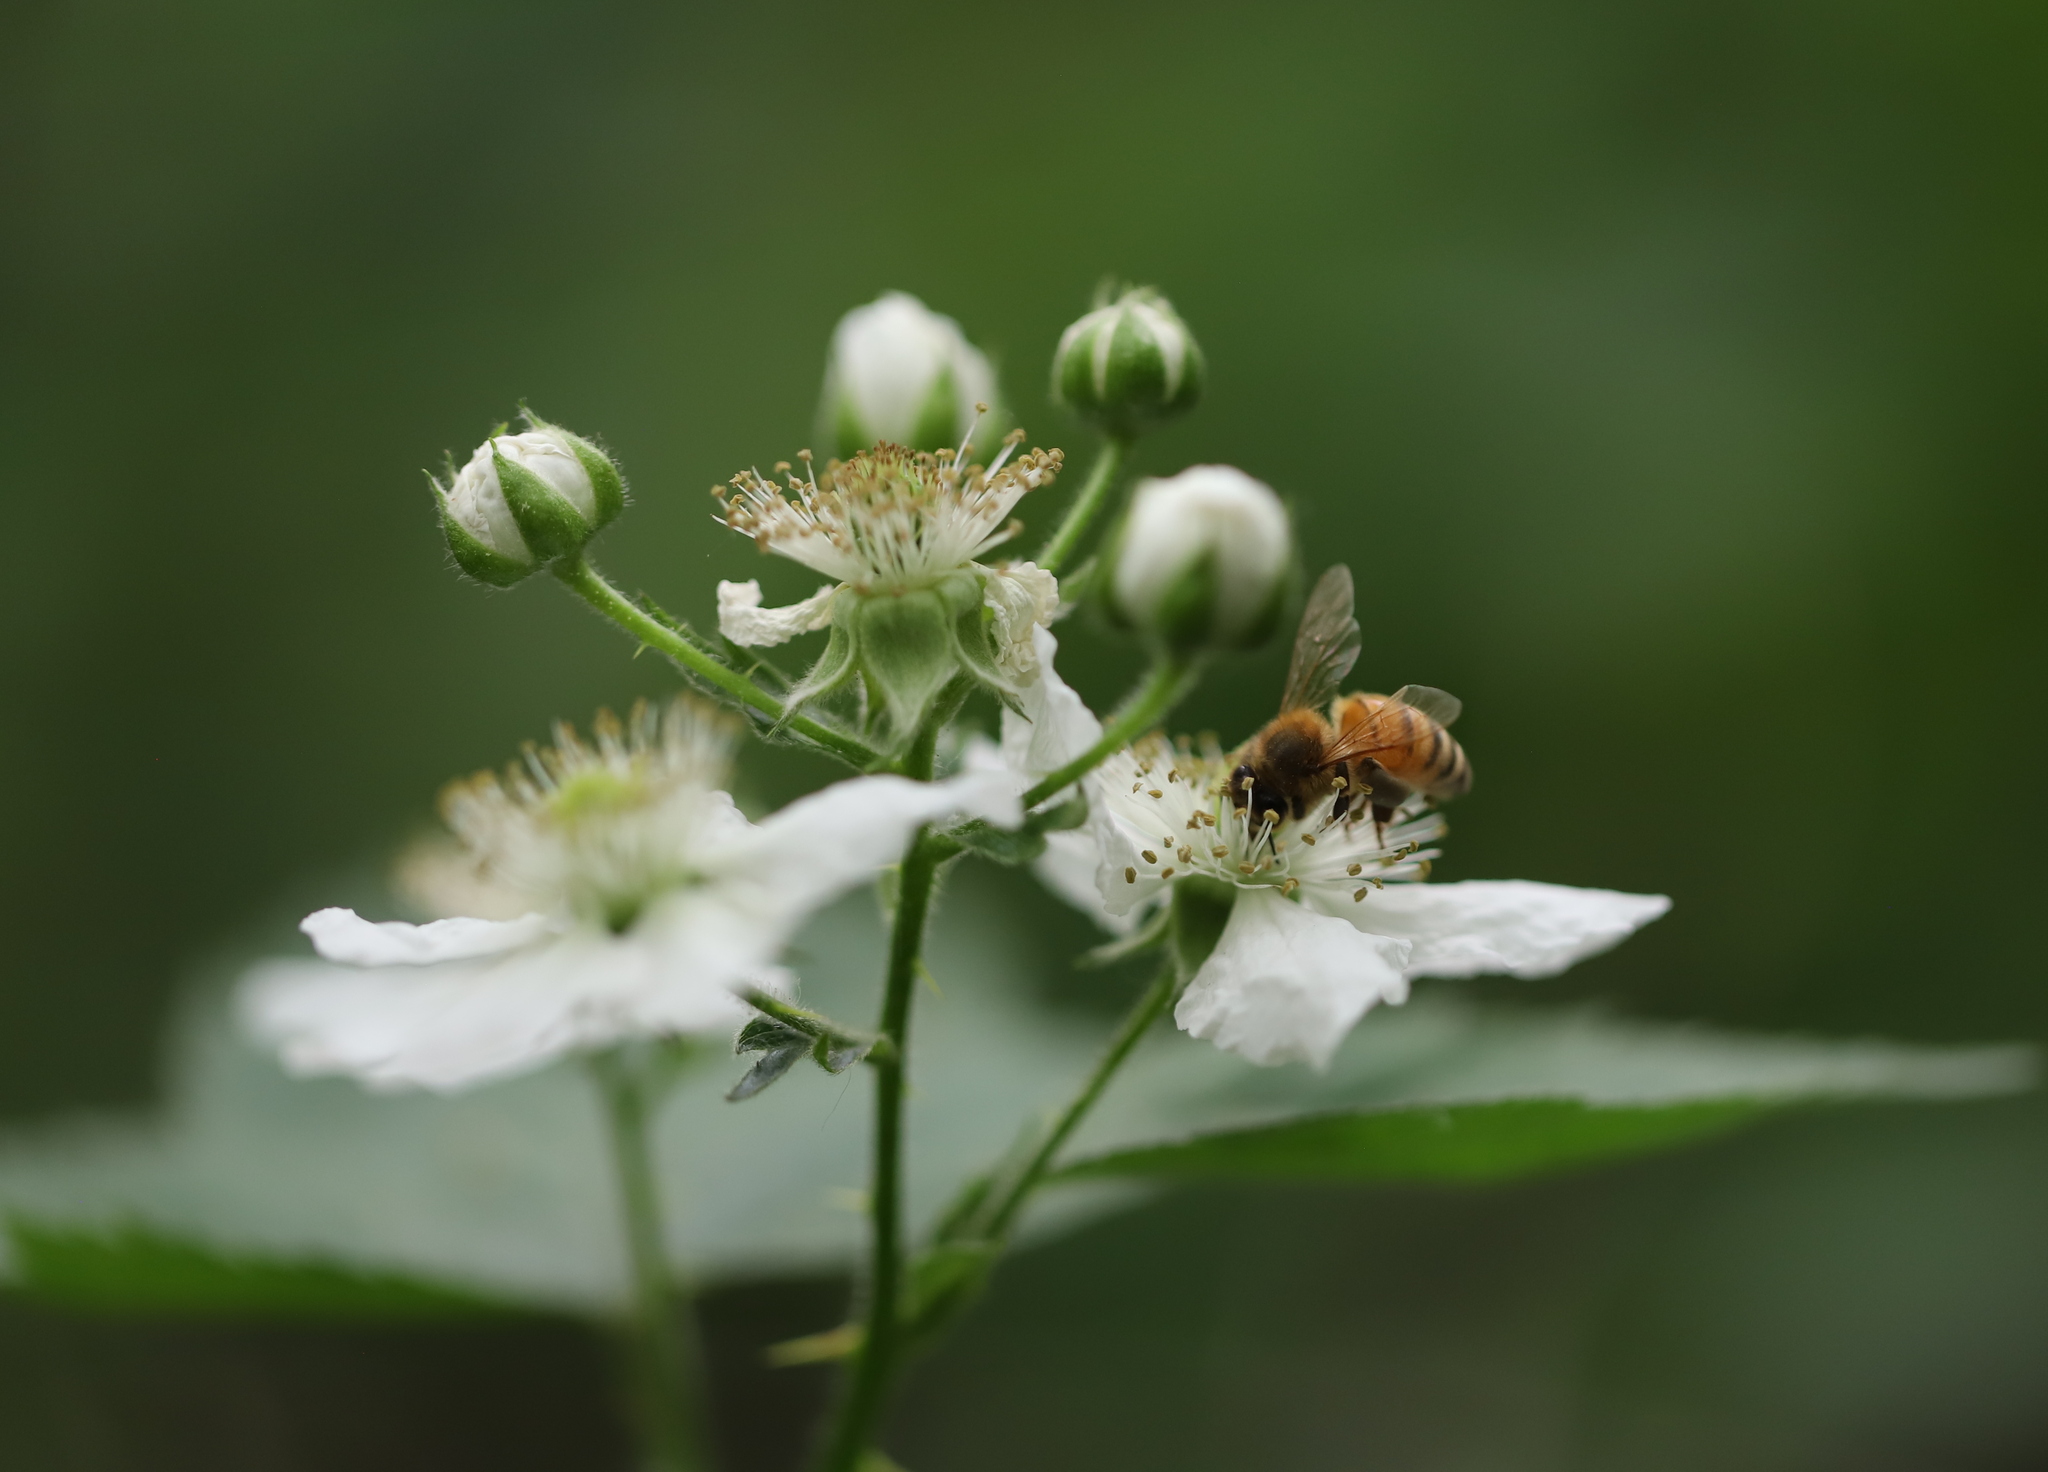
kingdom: Animalia
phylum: Arthropoda
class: Insecta
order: Hymenoptera
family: Apidae
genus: Apis
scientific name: Apis mellifera
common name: Honey bee
